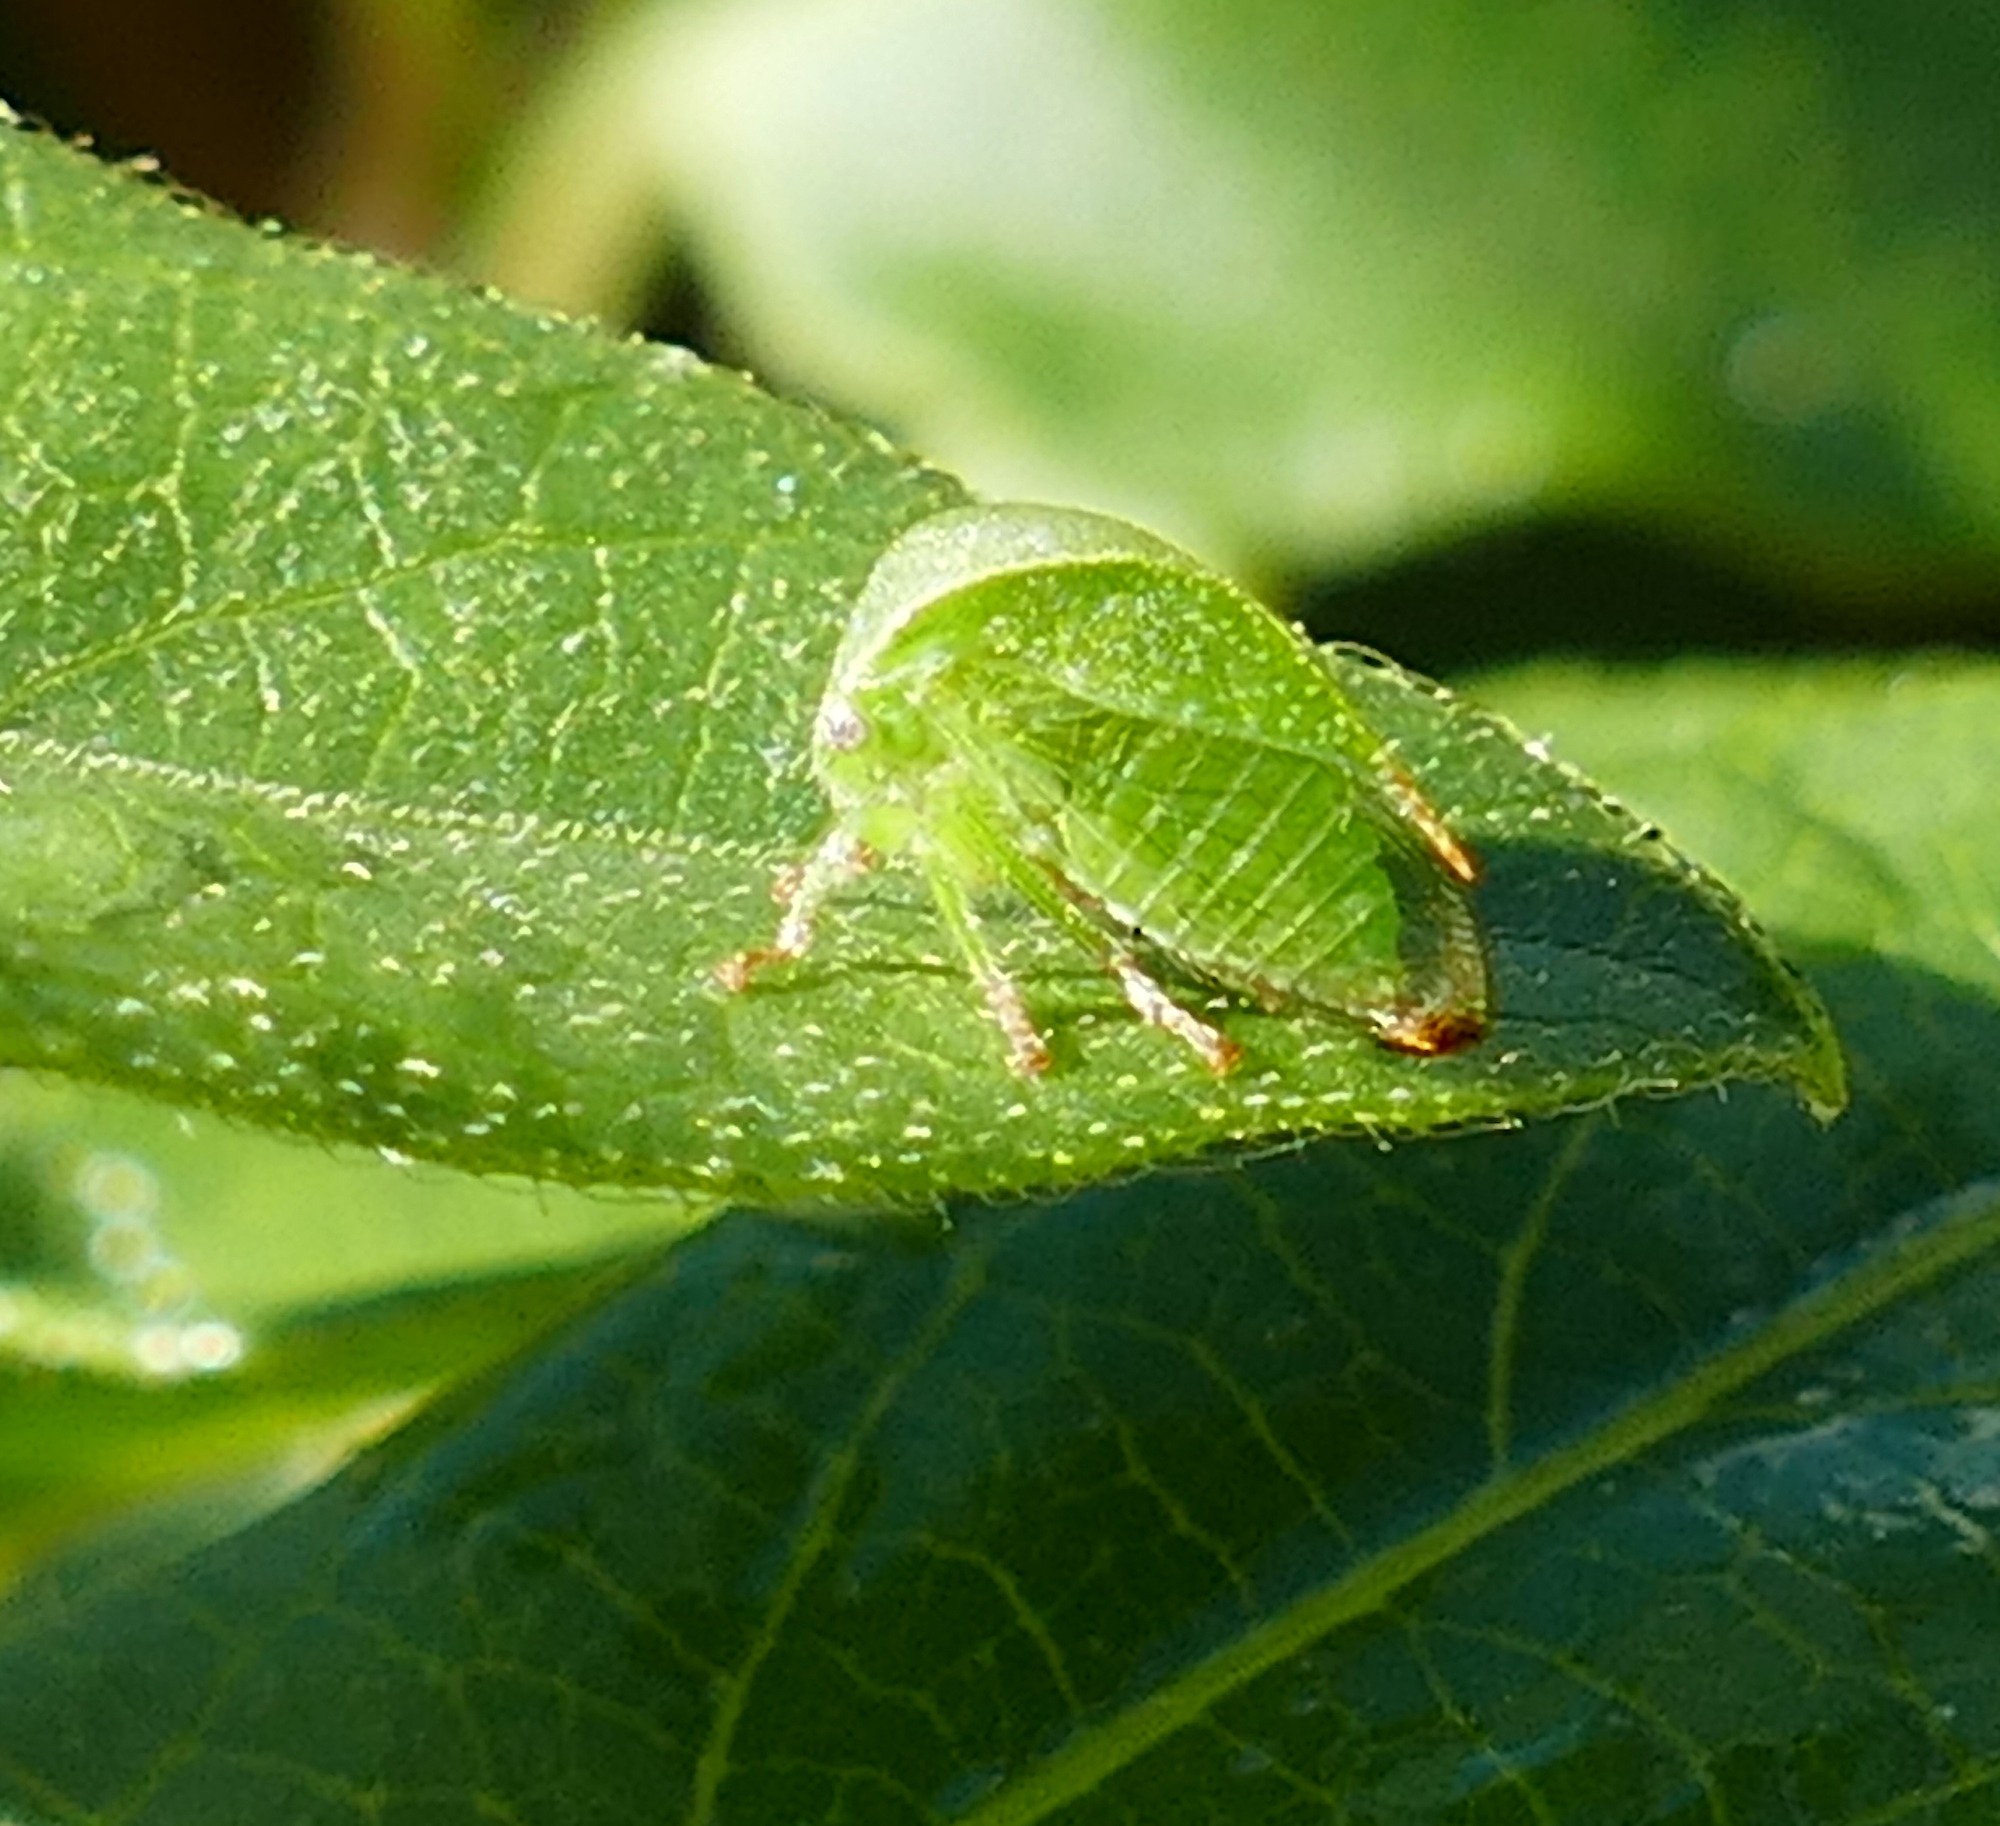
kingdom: Animalia
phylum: Arthropoda
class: Insecta
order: Hemiptera
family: Membracidae
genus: Spissistilus
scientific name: Spissistilus festina
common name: Membracid bug
